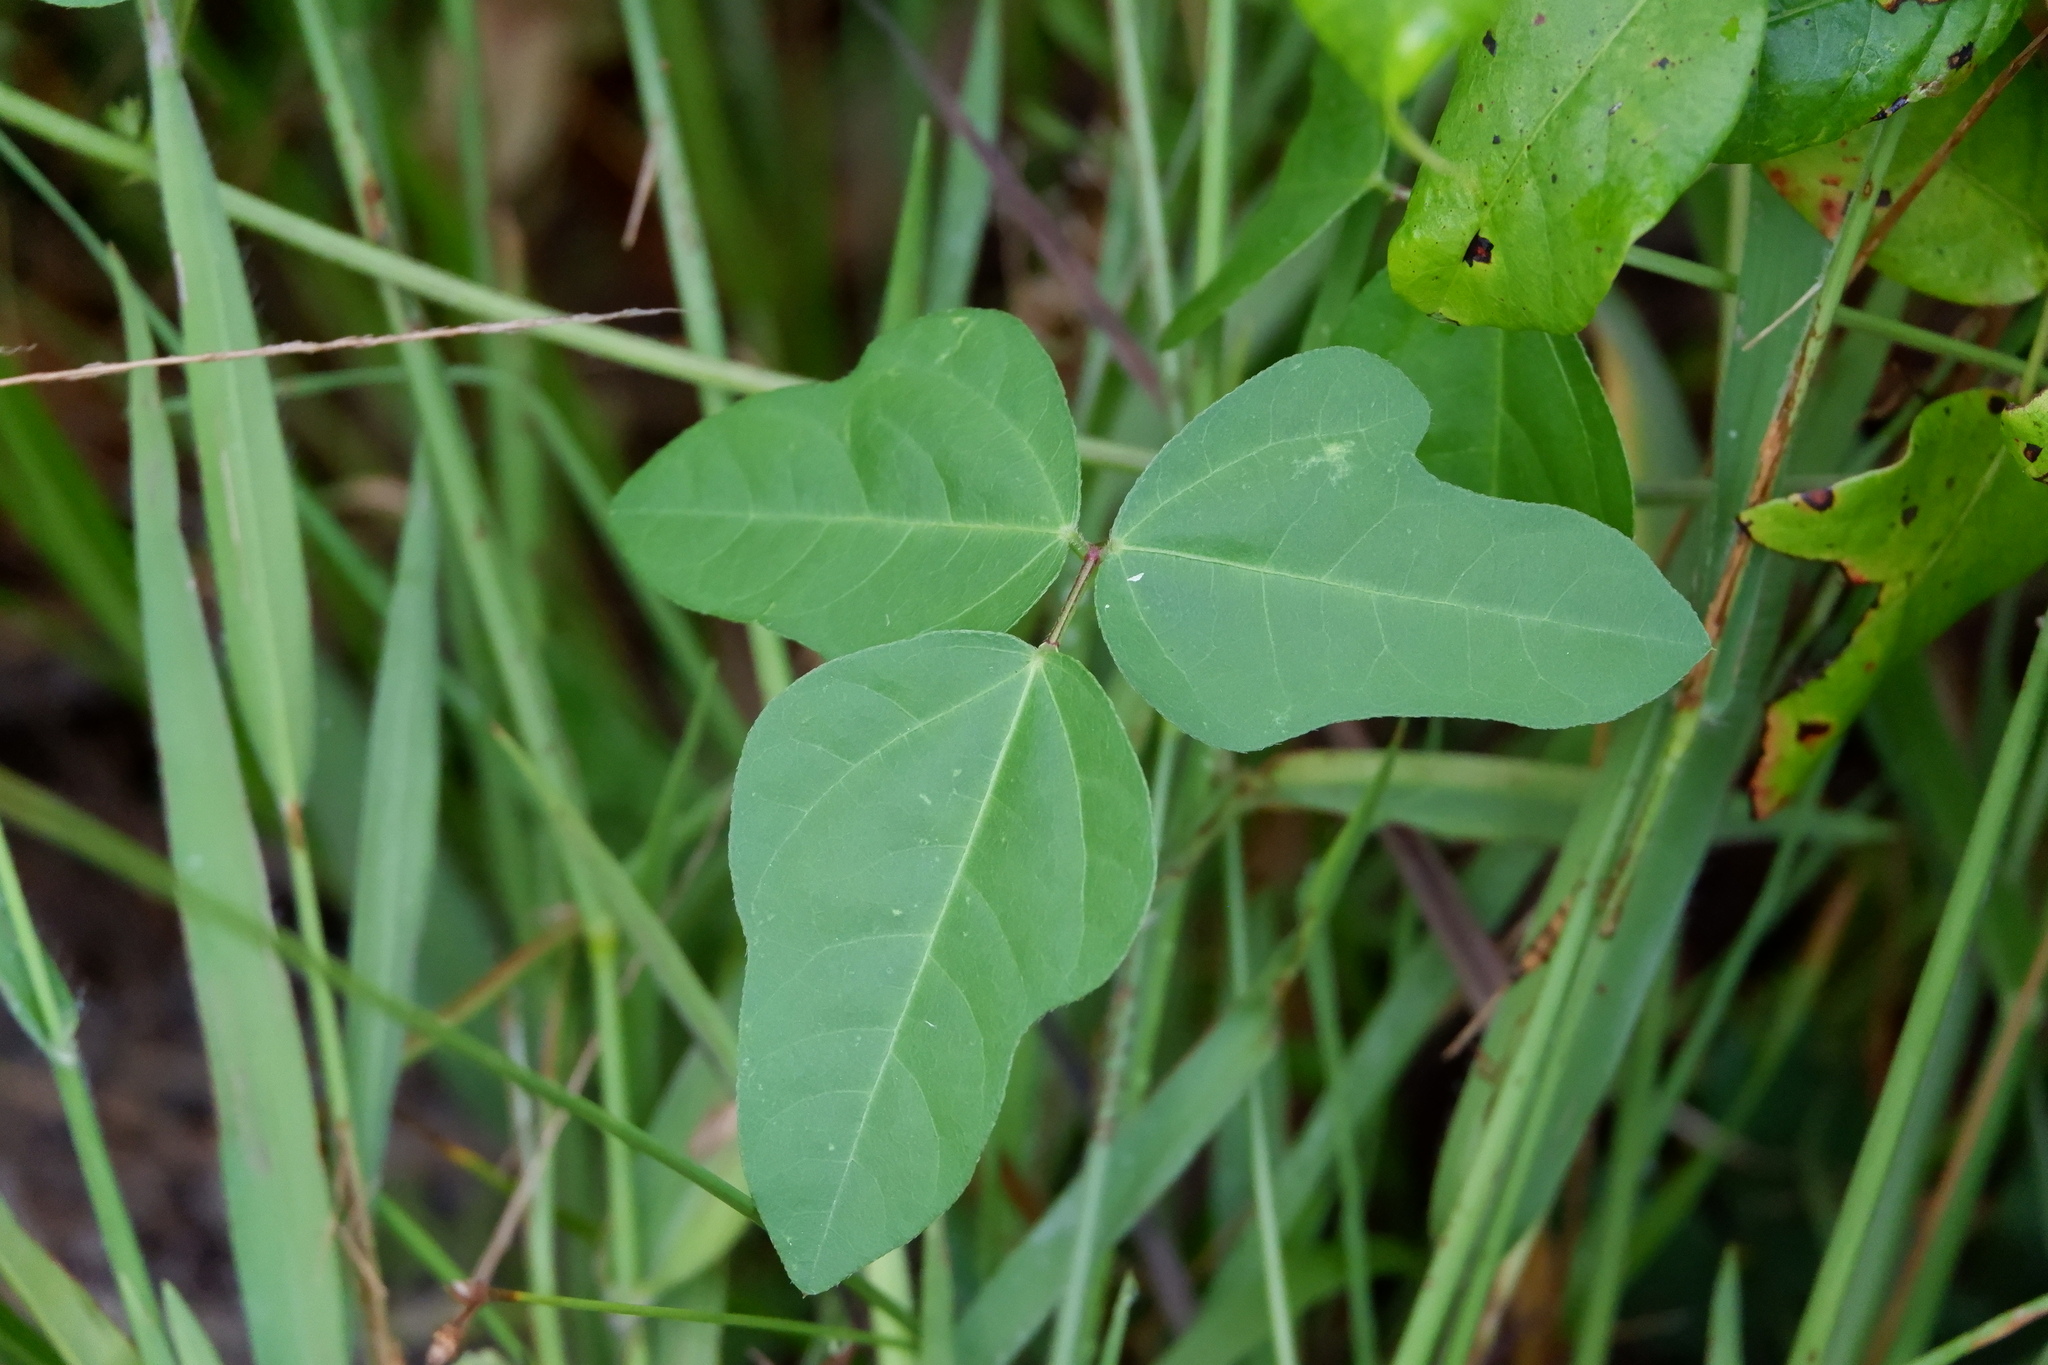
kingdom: Plantae
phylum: Tracheophyta
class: Magnoliopsida
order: Fabales
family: Fabaceae
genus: Strophostyles
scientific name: Strophostyles helvola
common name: Trailing wild bean
